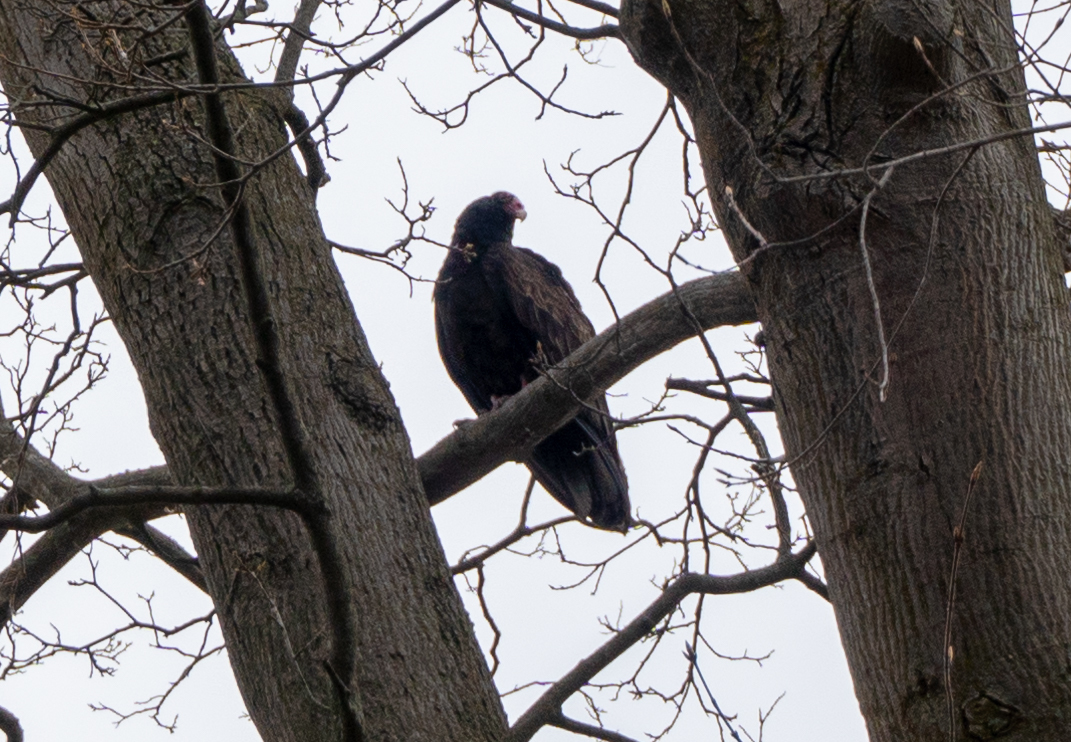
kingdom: Animalia
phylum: Chordata
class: Aves
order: Accipitriformes
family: Cathartidae
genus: Cathartes
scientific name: Cathartes aura
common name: Turkey vulture
